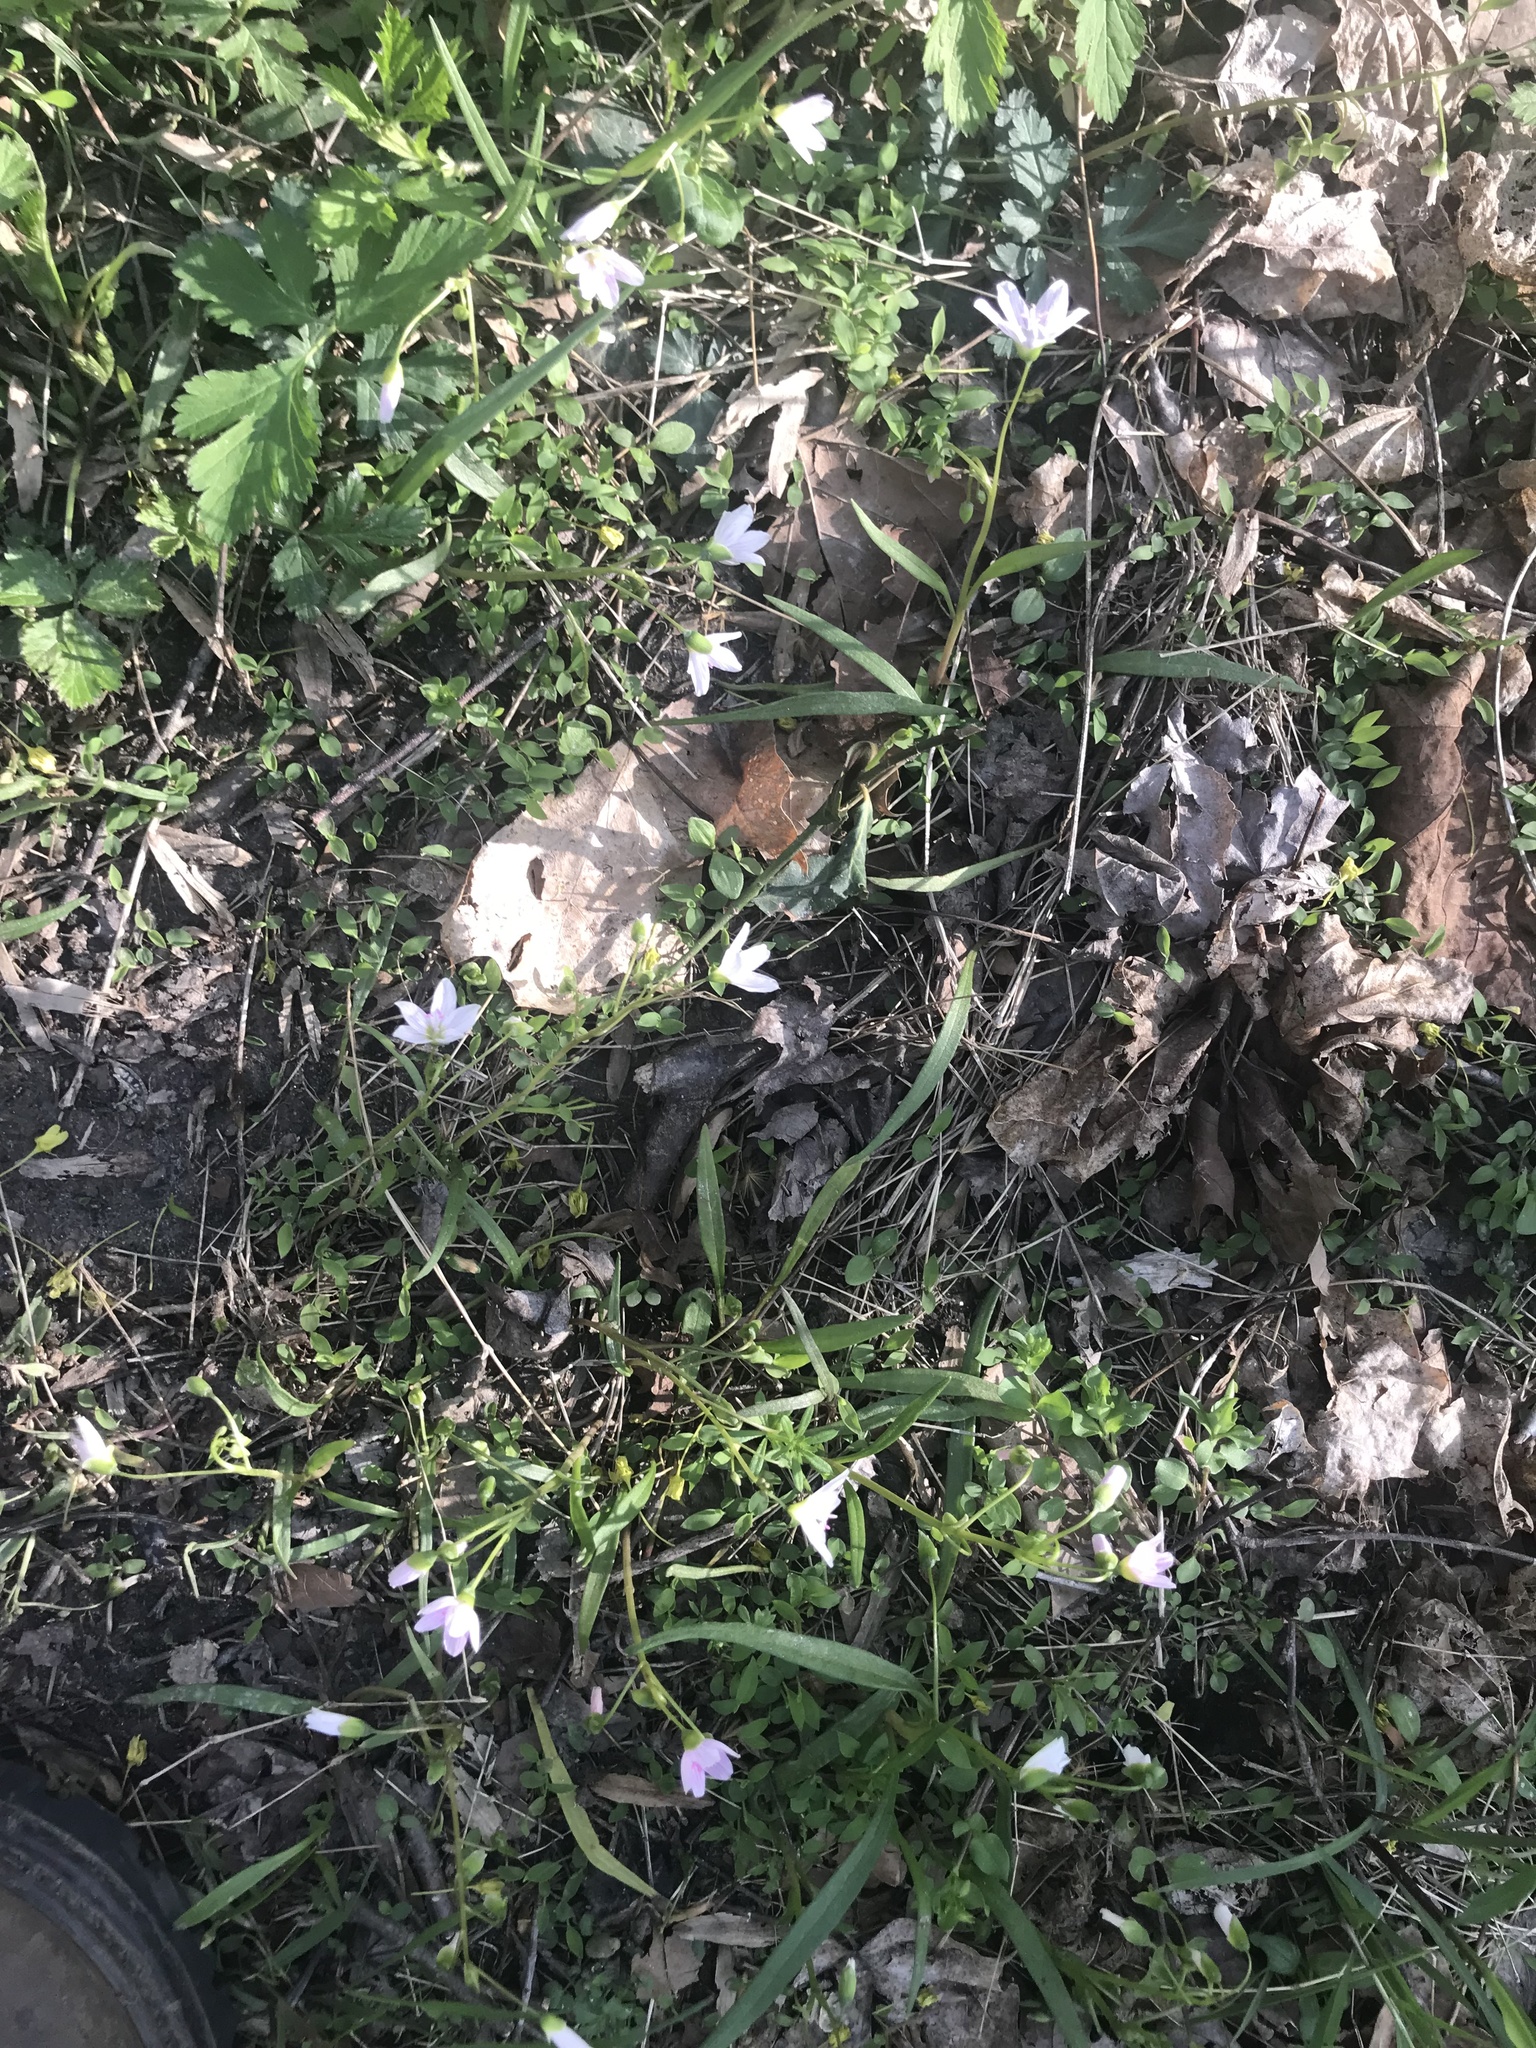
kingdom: Plantae
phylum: Tracheophyta
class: Magnoliopsida
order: Rosales
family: Rosaceae
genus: Fragaria
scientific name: Fragaria virginiana
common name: Thickleaved wild strawberry
